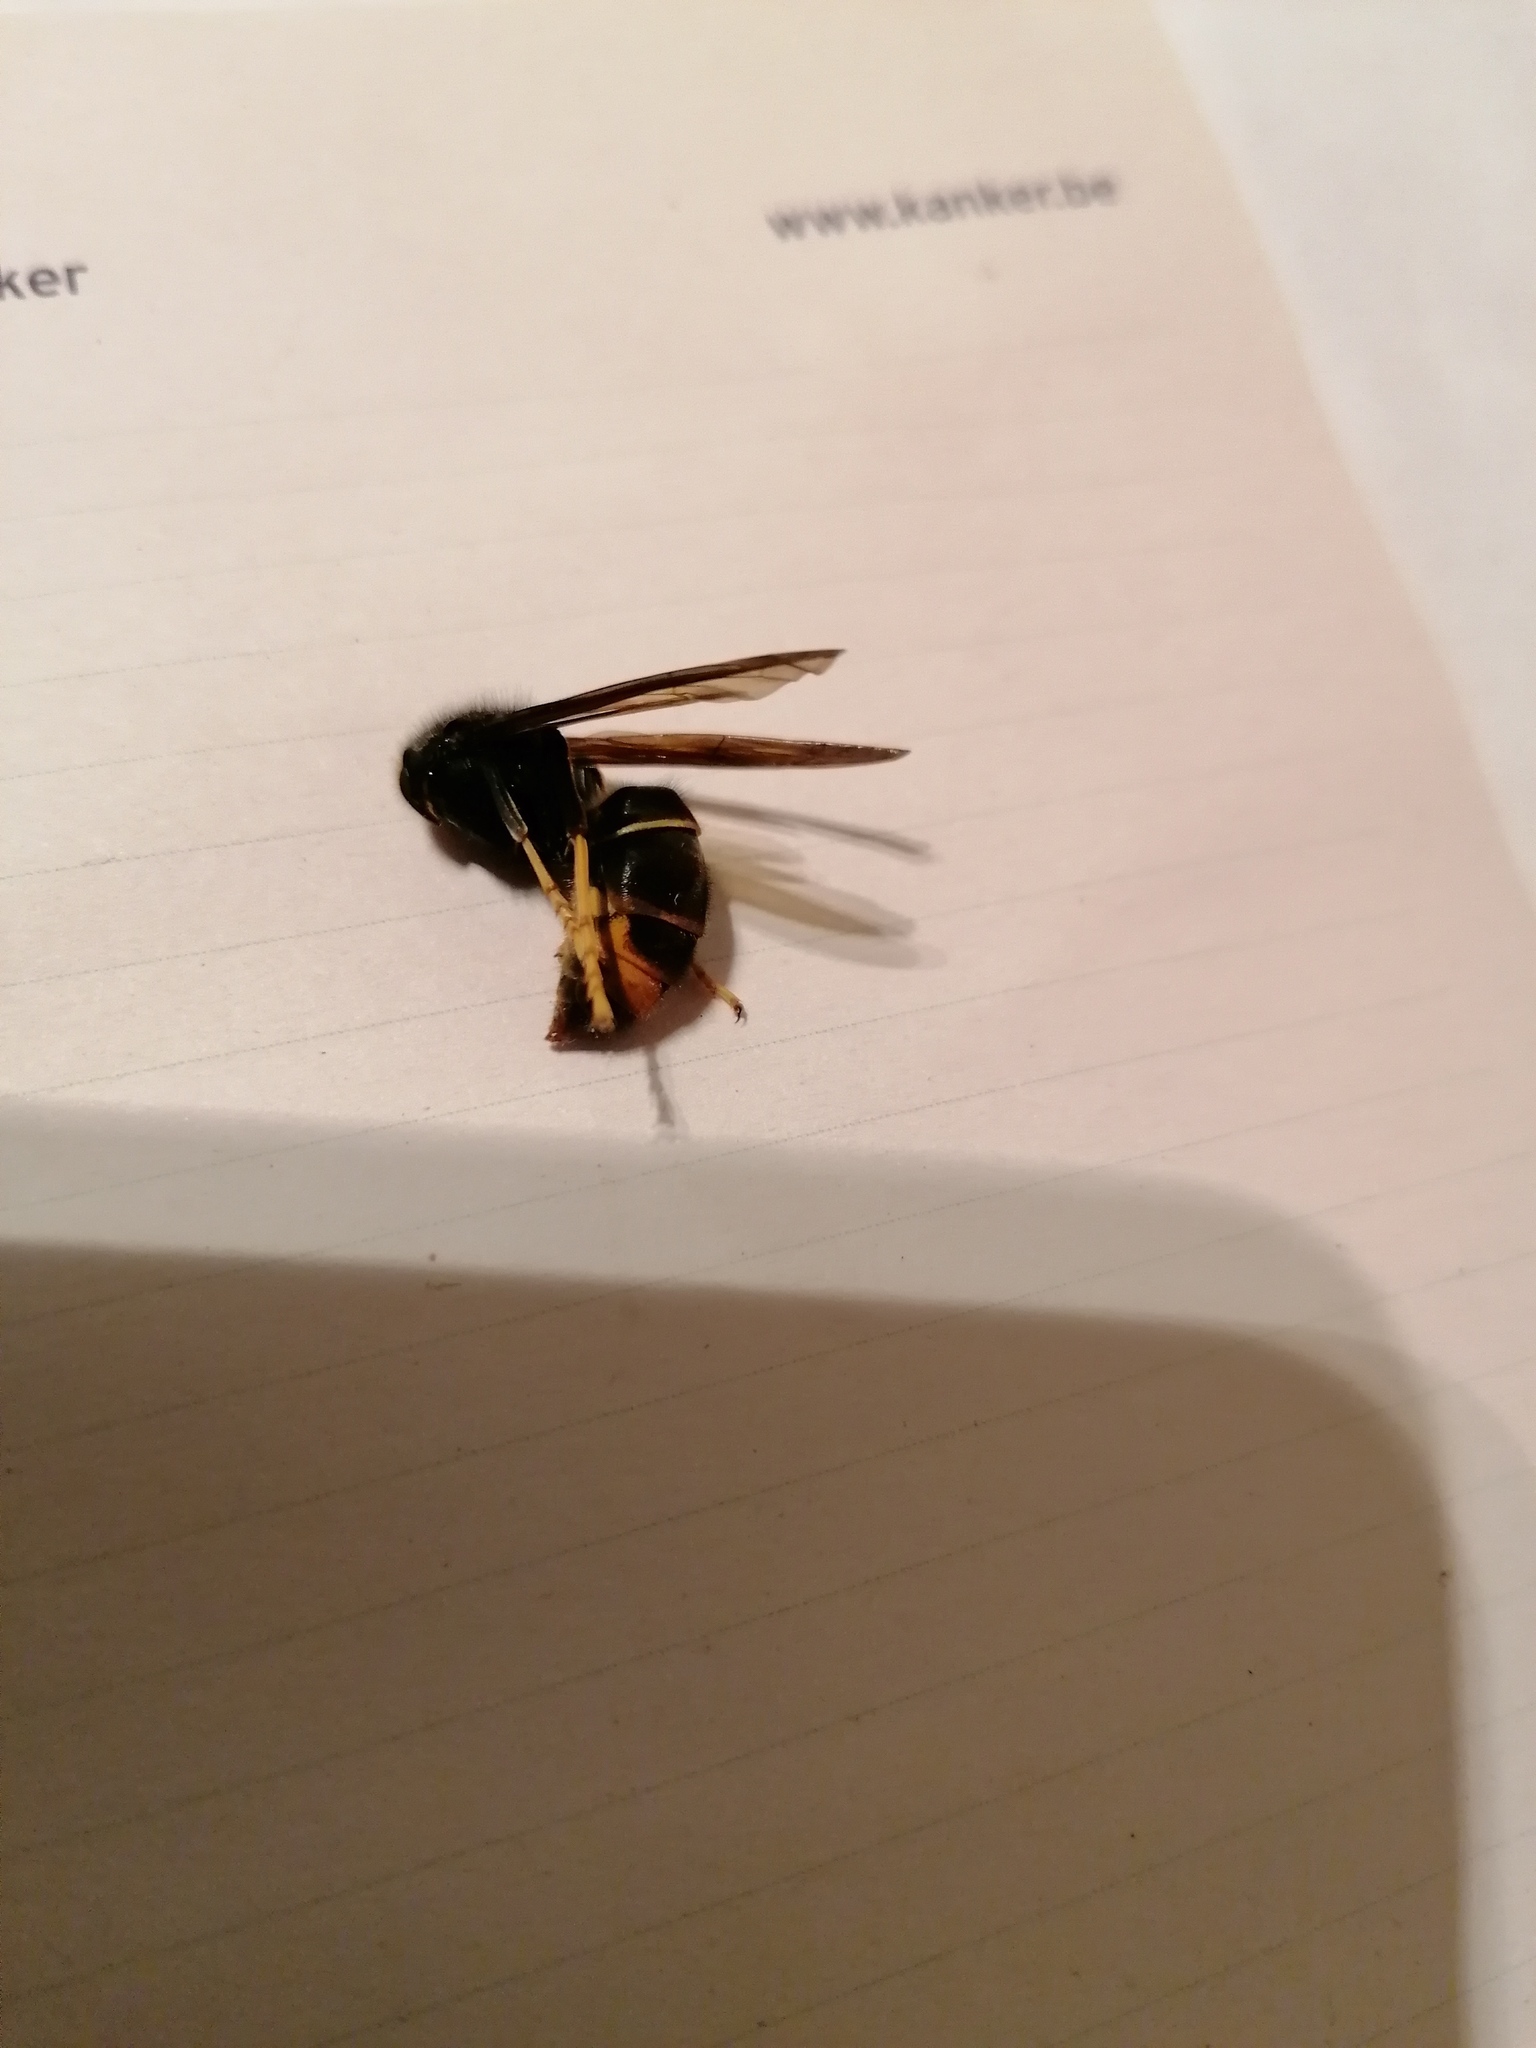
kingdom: Animalia
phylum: Arthropoda
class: Insecta
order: Hymenoptera
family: Vespidae
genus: Vespa
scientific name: Vespa velutina
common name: Asian hornet
